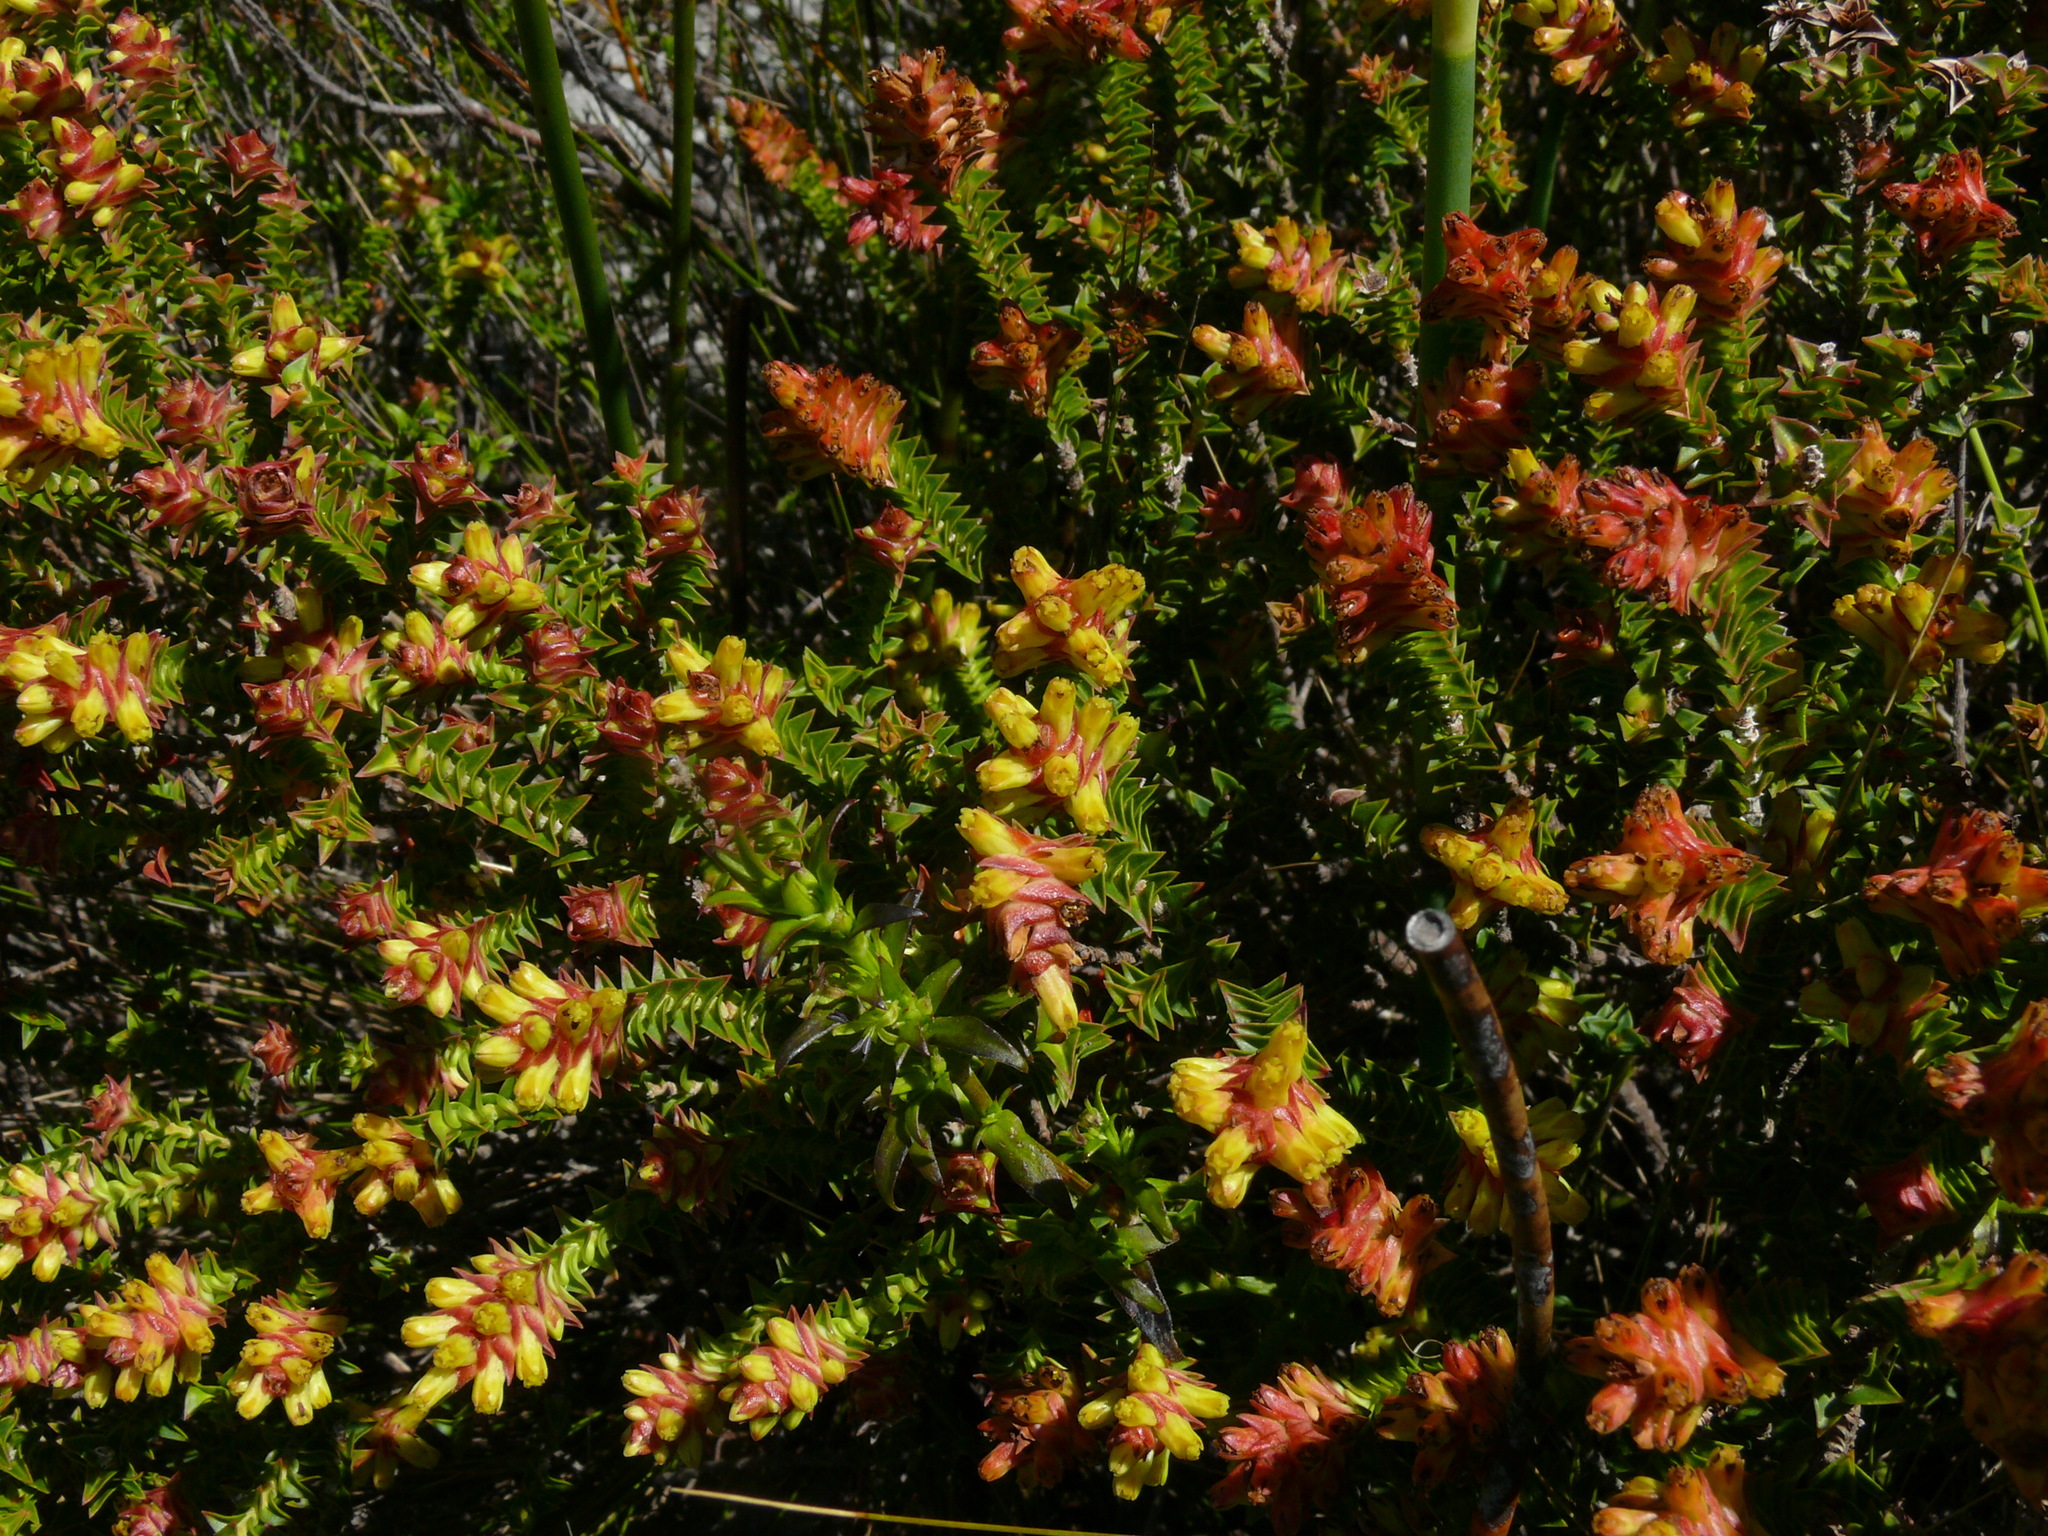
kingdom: Plantae
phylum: Tracheophyta
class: Magnoliopsida
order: Myrtales
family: Penaeaceae
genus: Penaea
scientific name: Penaea mucronata
